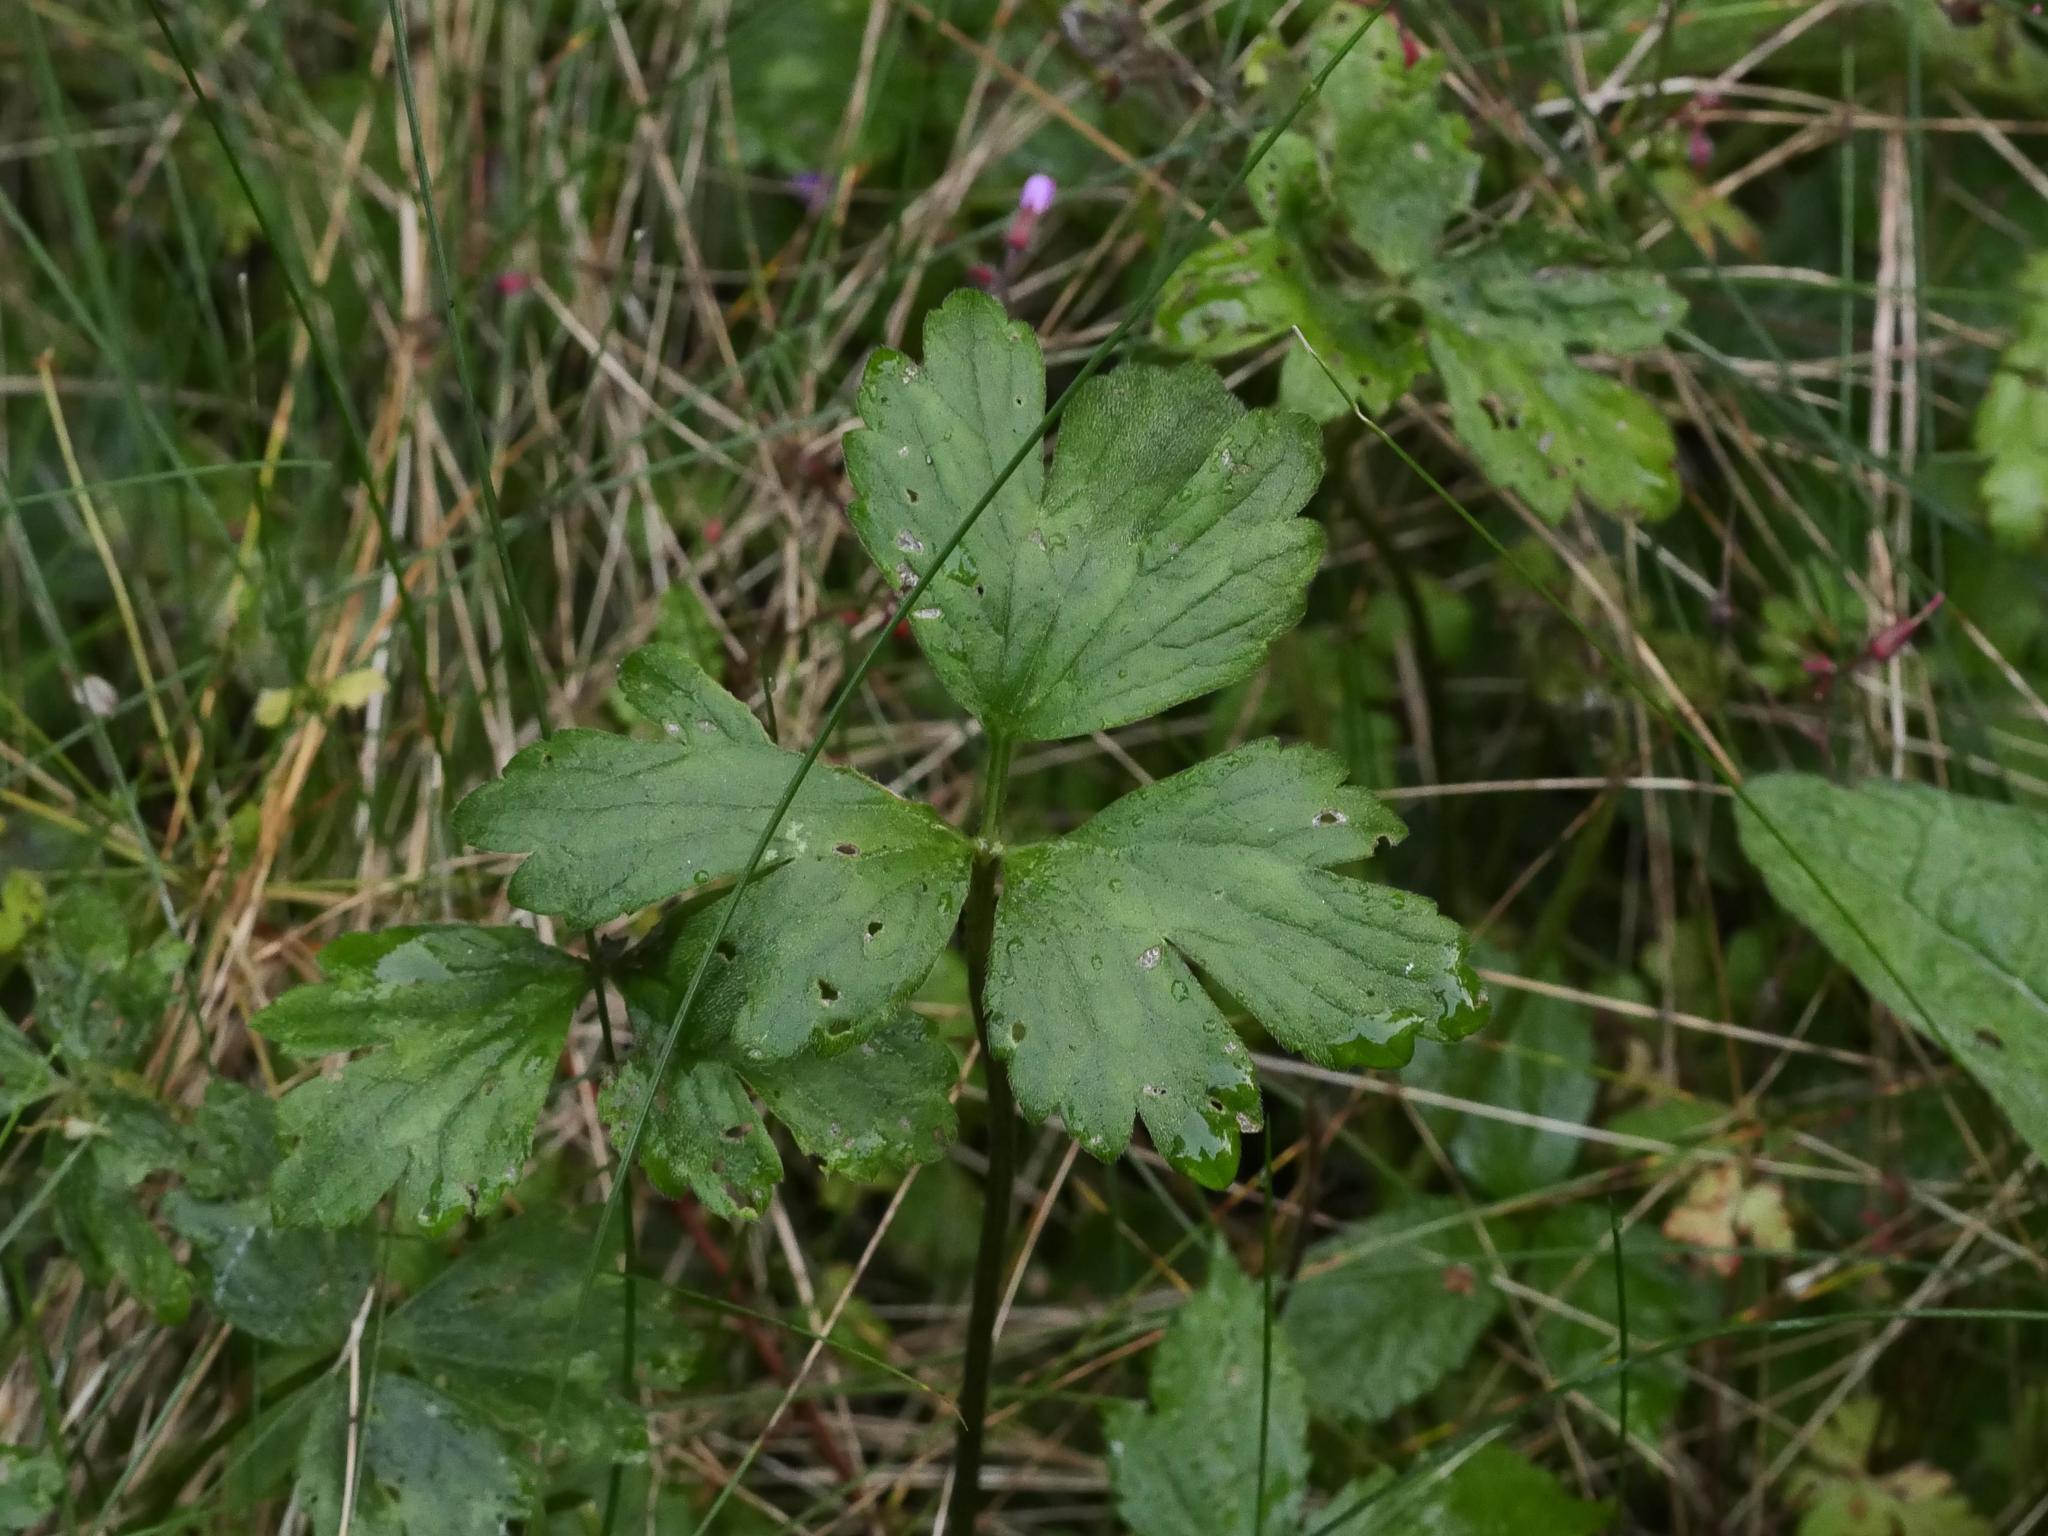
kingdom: Plantae
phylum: Tracheophyta
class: Magnoliopsida
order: Ranunculales
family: Ranunculaceae
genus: Ranunculus
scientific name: Ranunculus repens
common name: Creeping buttercup
